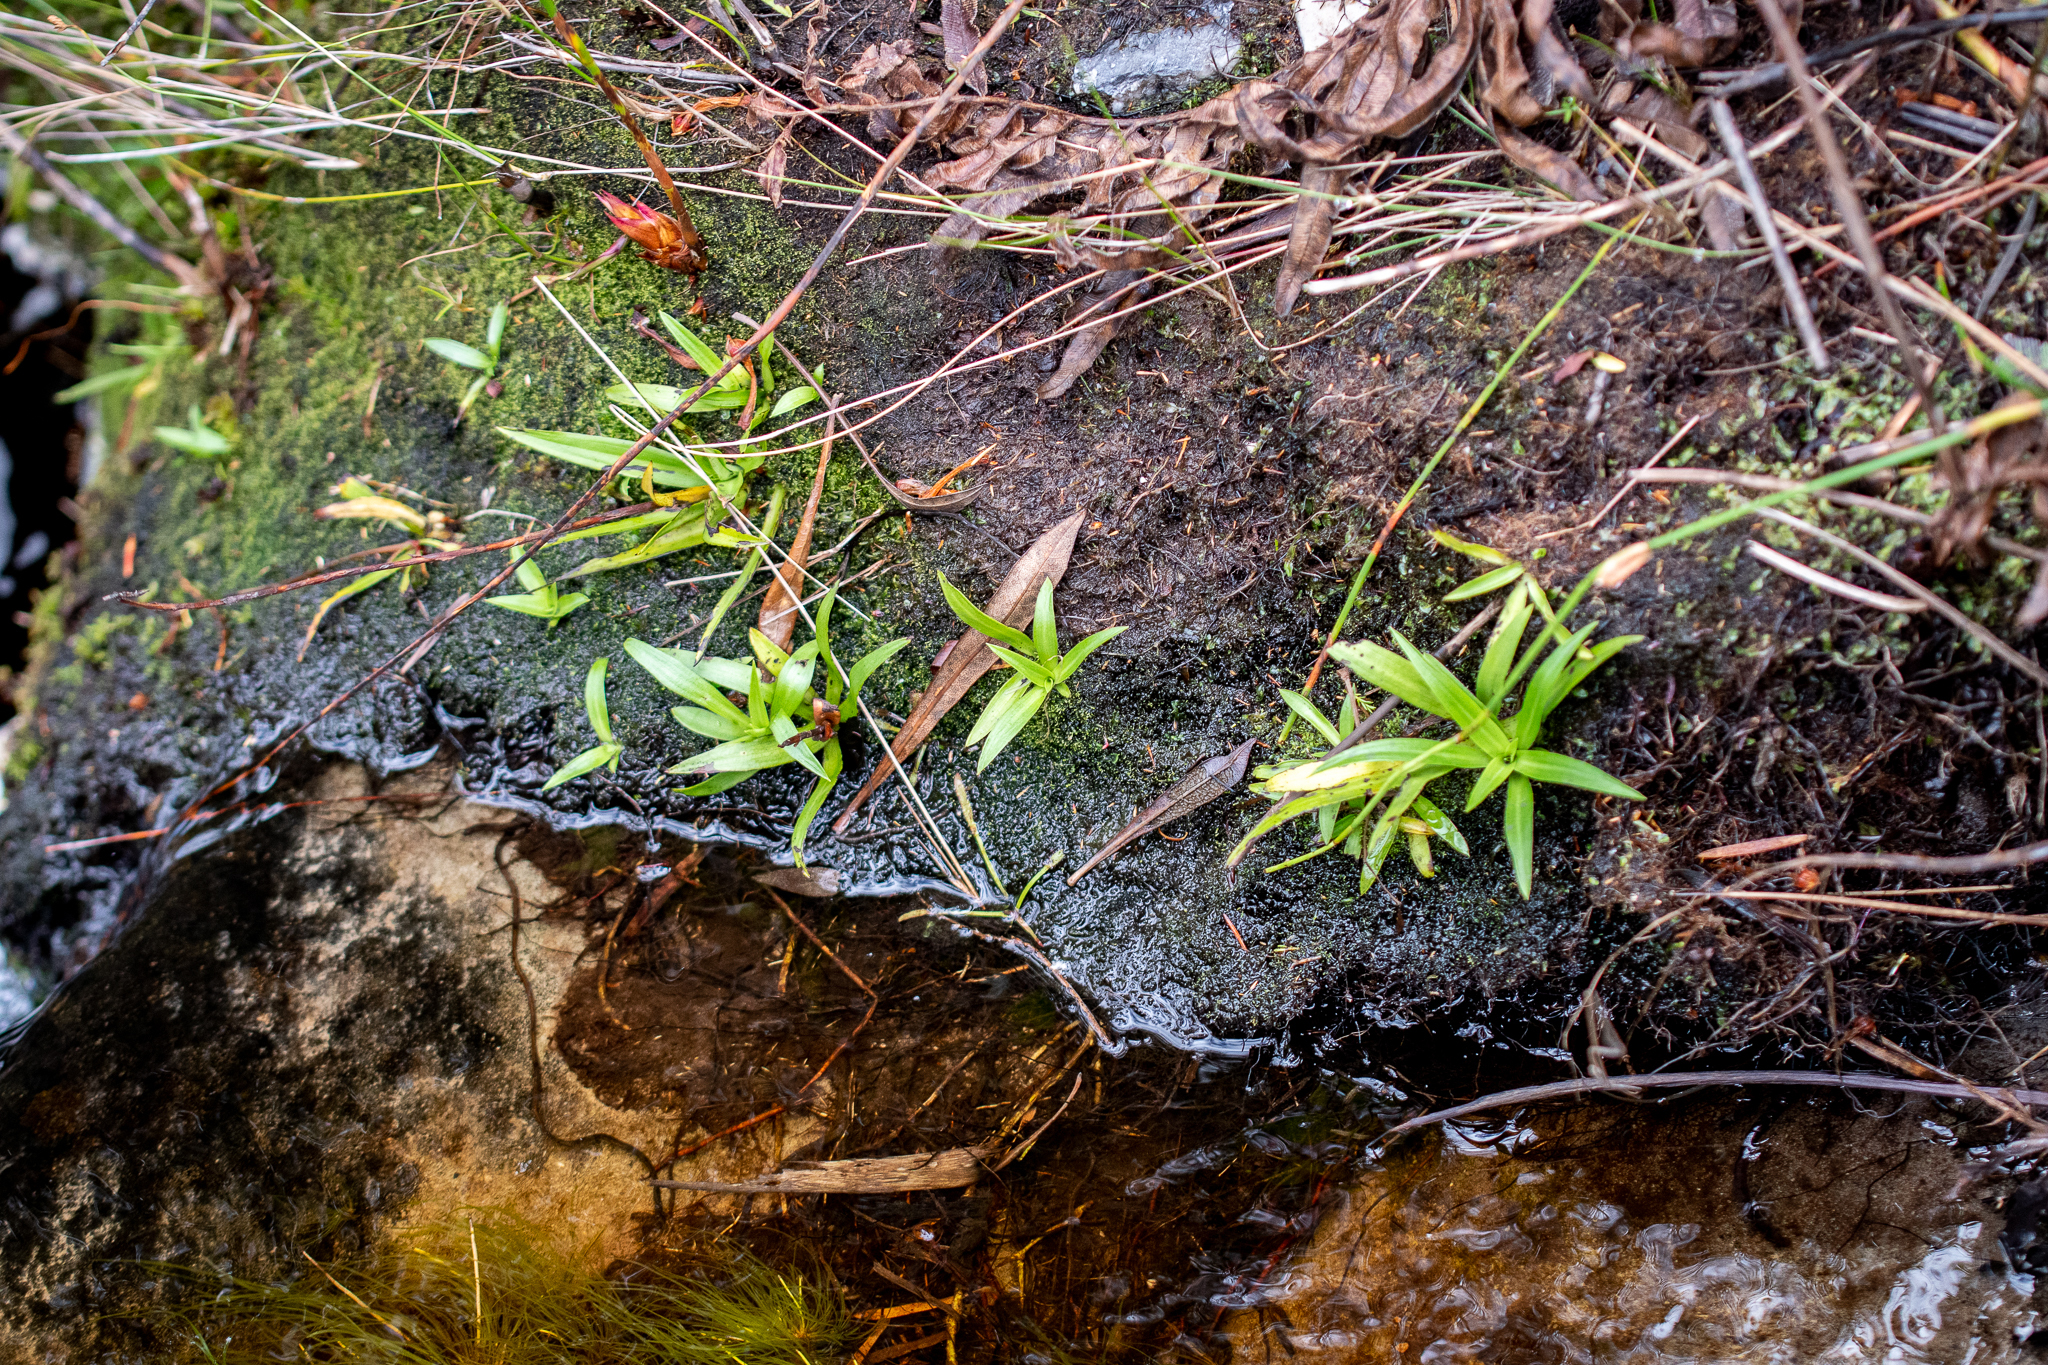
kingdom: Plantae
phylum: Tracheophyta
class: Liliopsida
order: Asparagales
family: Orchidaceae
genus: Disa
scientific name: Disa tripetaloides
